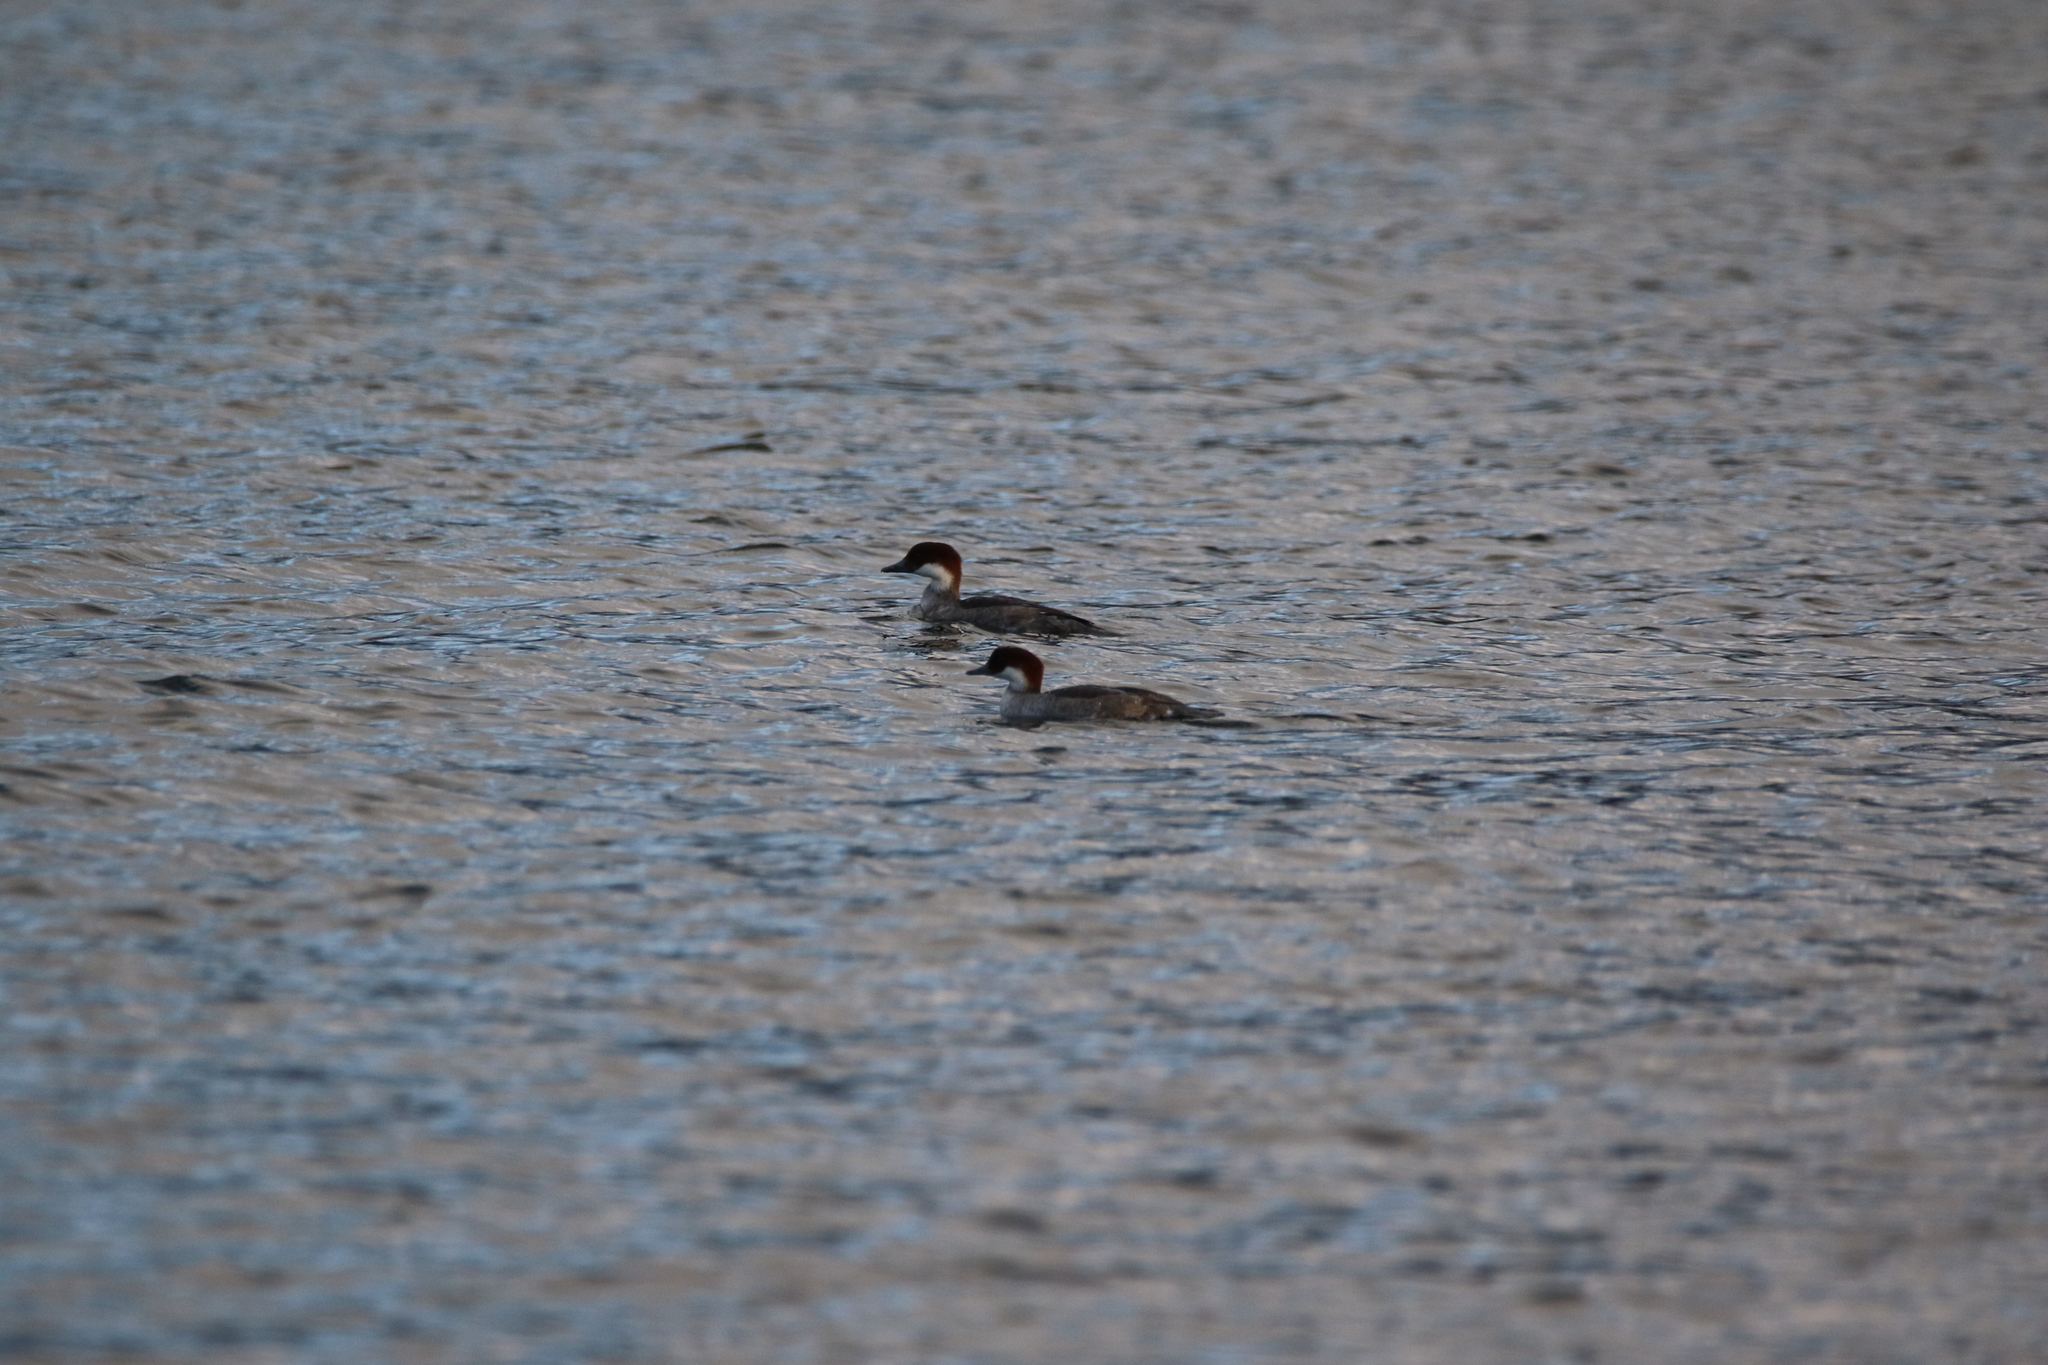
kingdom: Animalia
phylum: Chordata
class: Aves
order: Anseriformes
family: Anatidae
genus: Mergellus
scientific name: Mergellus albellus
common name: Smew
